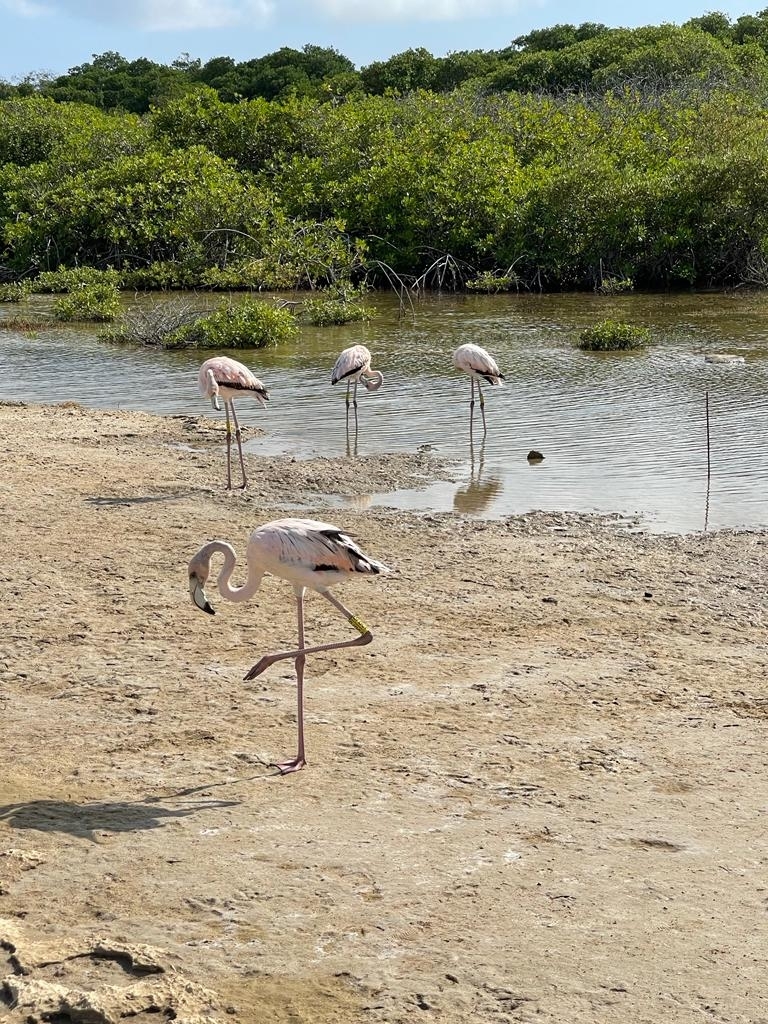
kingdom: Animalia
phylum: Chordata
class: Aves
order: Phoenicopteriformes
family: Phoenicopteridae
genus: Phoenicopterus
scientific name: Phoenicopterus ruber
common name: American flamingo
